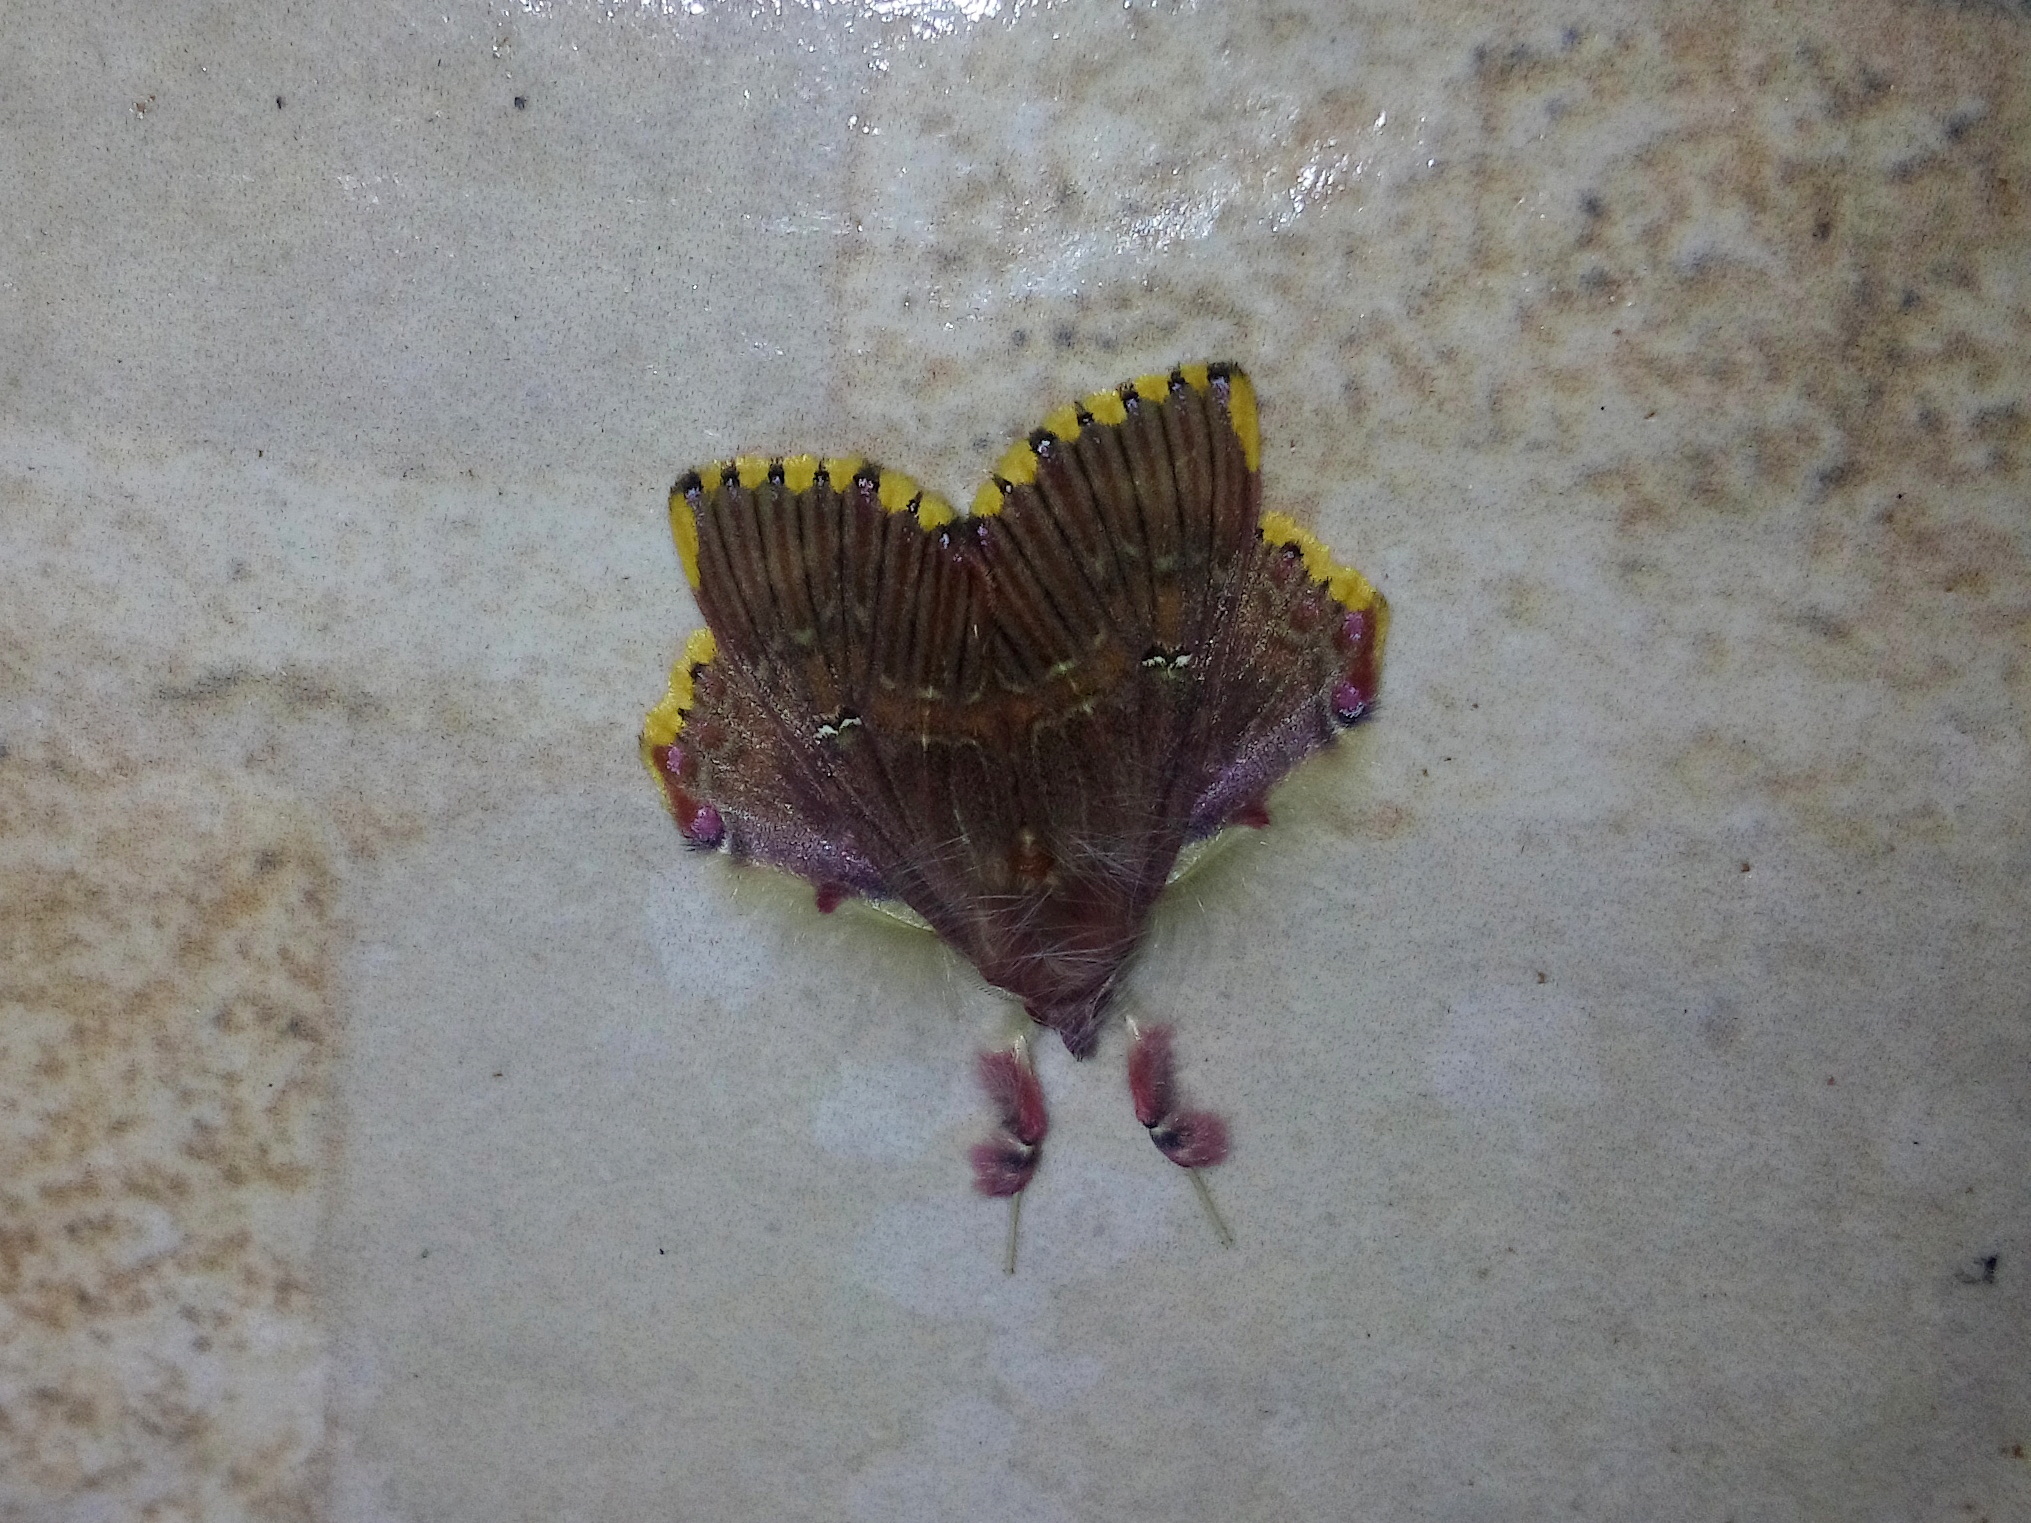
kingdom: Animalia
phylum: Arthropoda
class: Insecta
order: Lepidoptera
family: Erebidae
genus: Sosxetra
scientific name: Sosxetra grata
